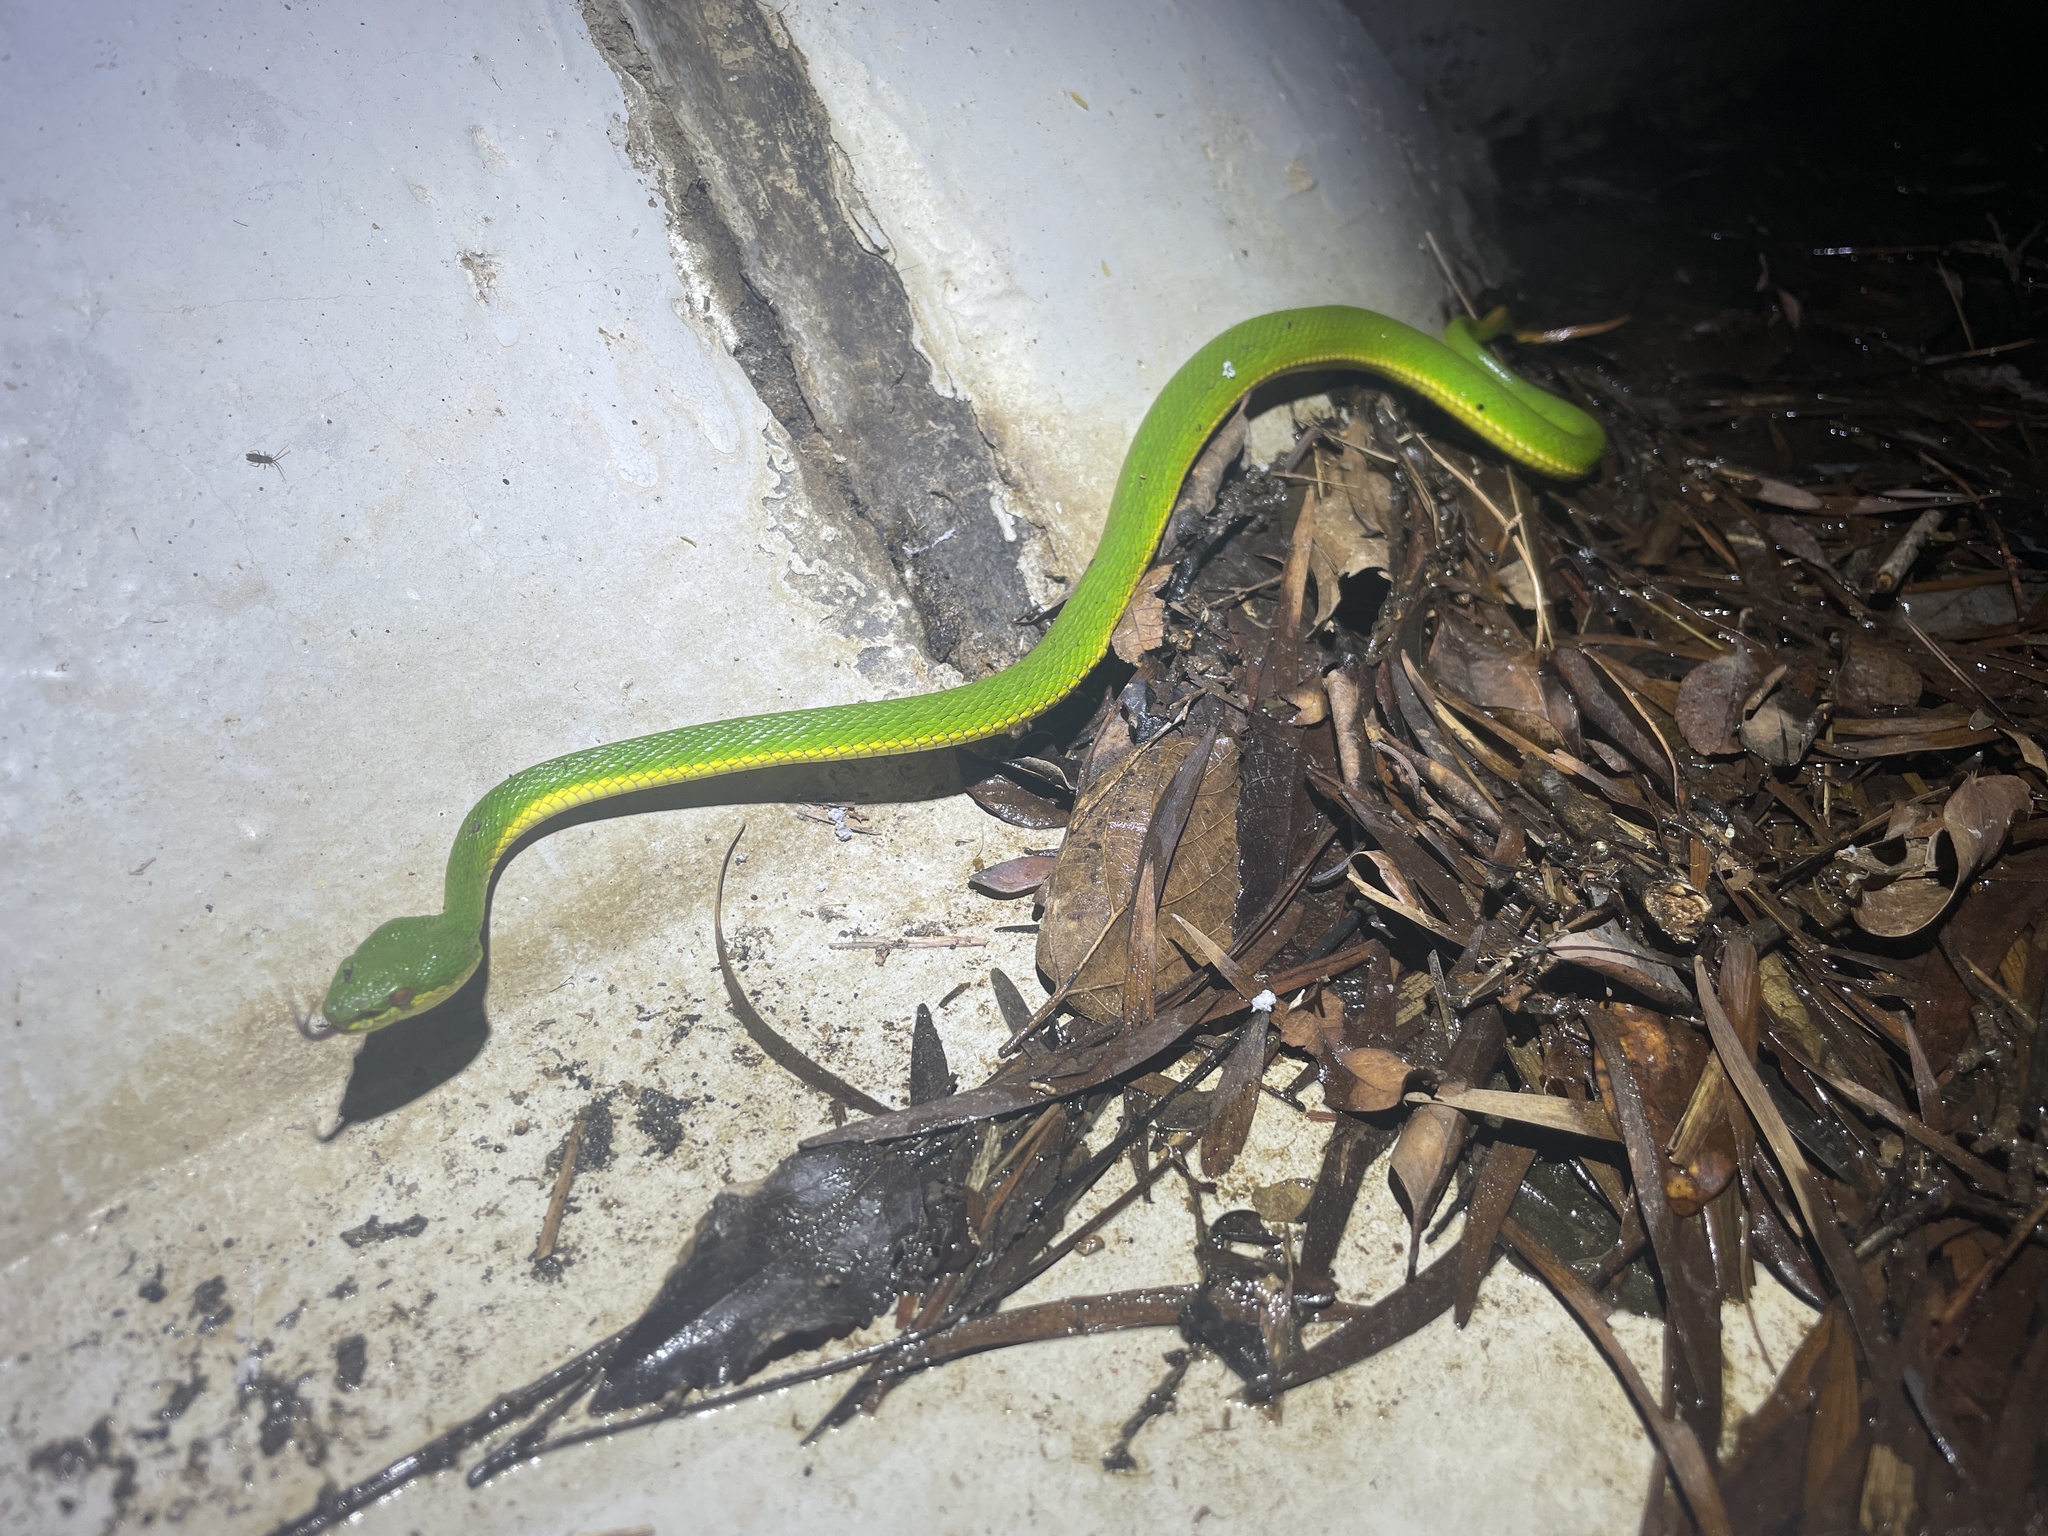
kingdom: Animalia
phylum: Chordata
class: Squamata
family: Viperidae
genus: Trimeresurus
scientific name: Trimeresurus albolabris
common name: White-lipped pitviper
